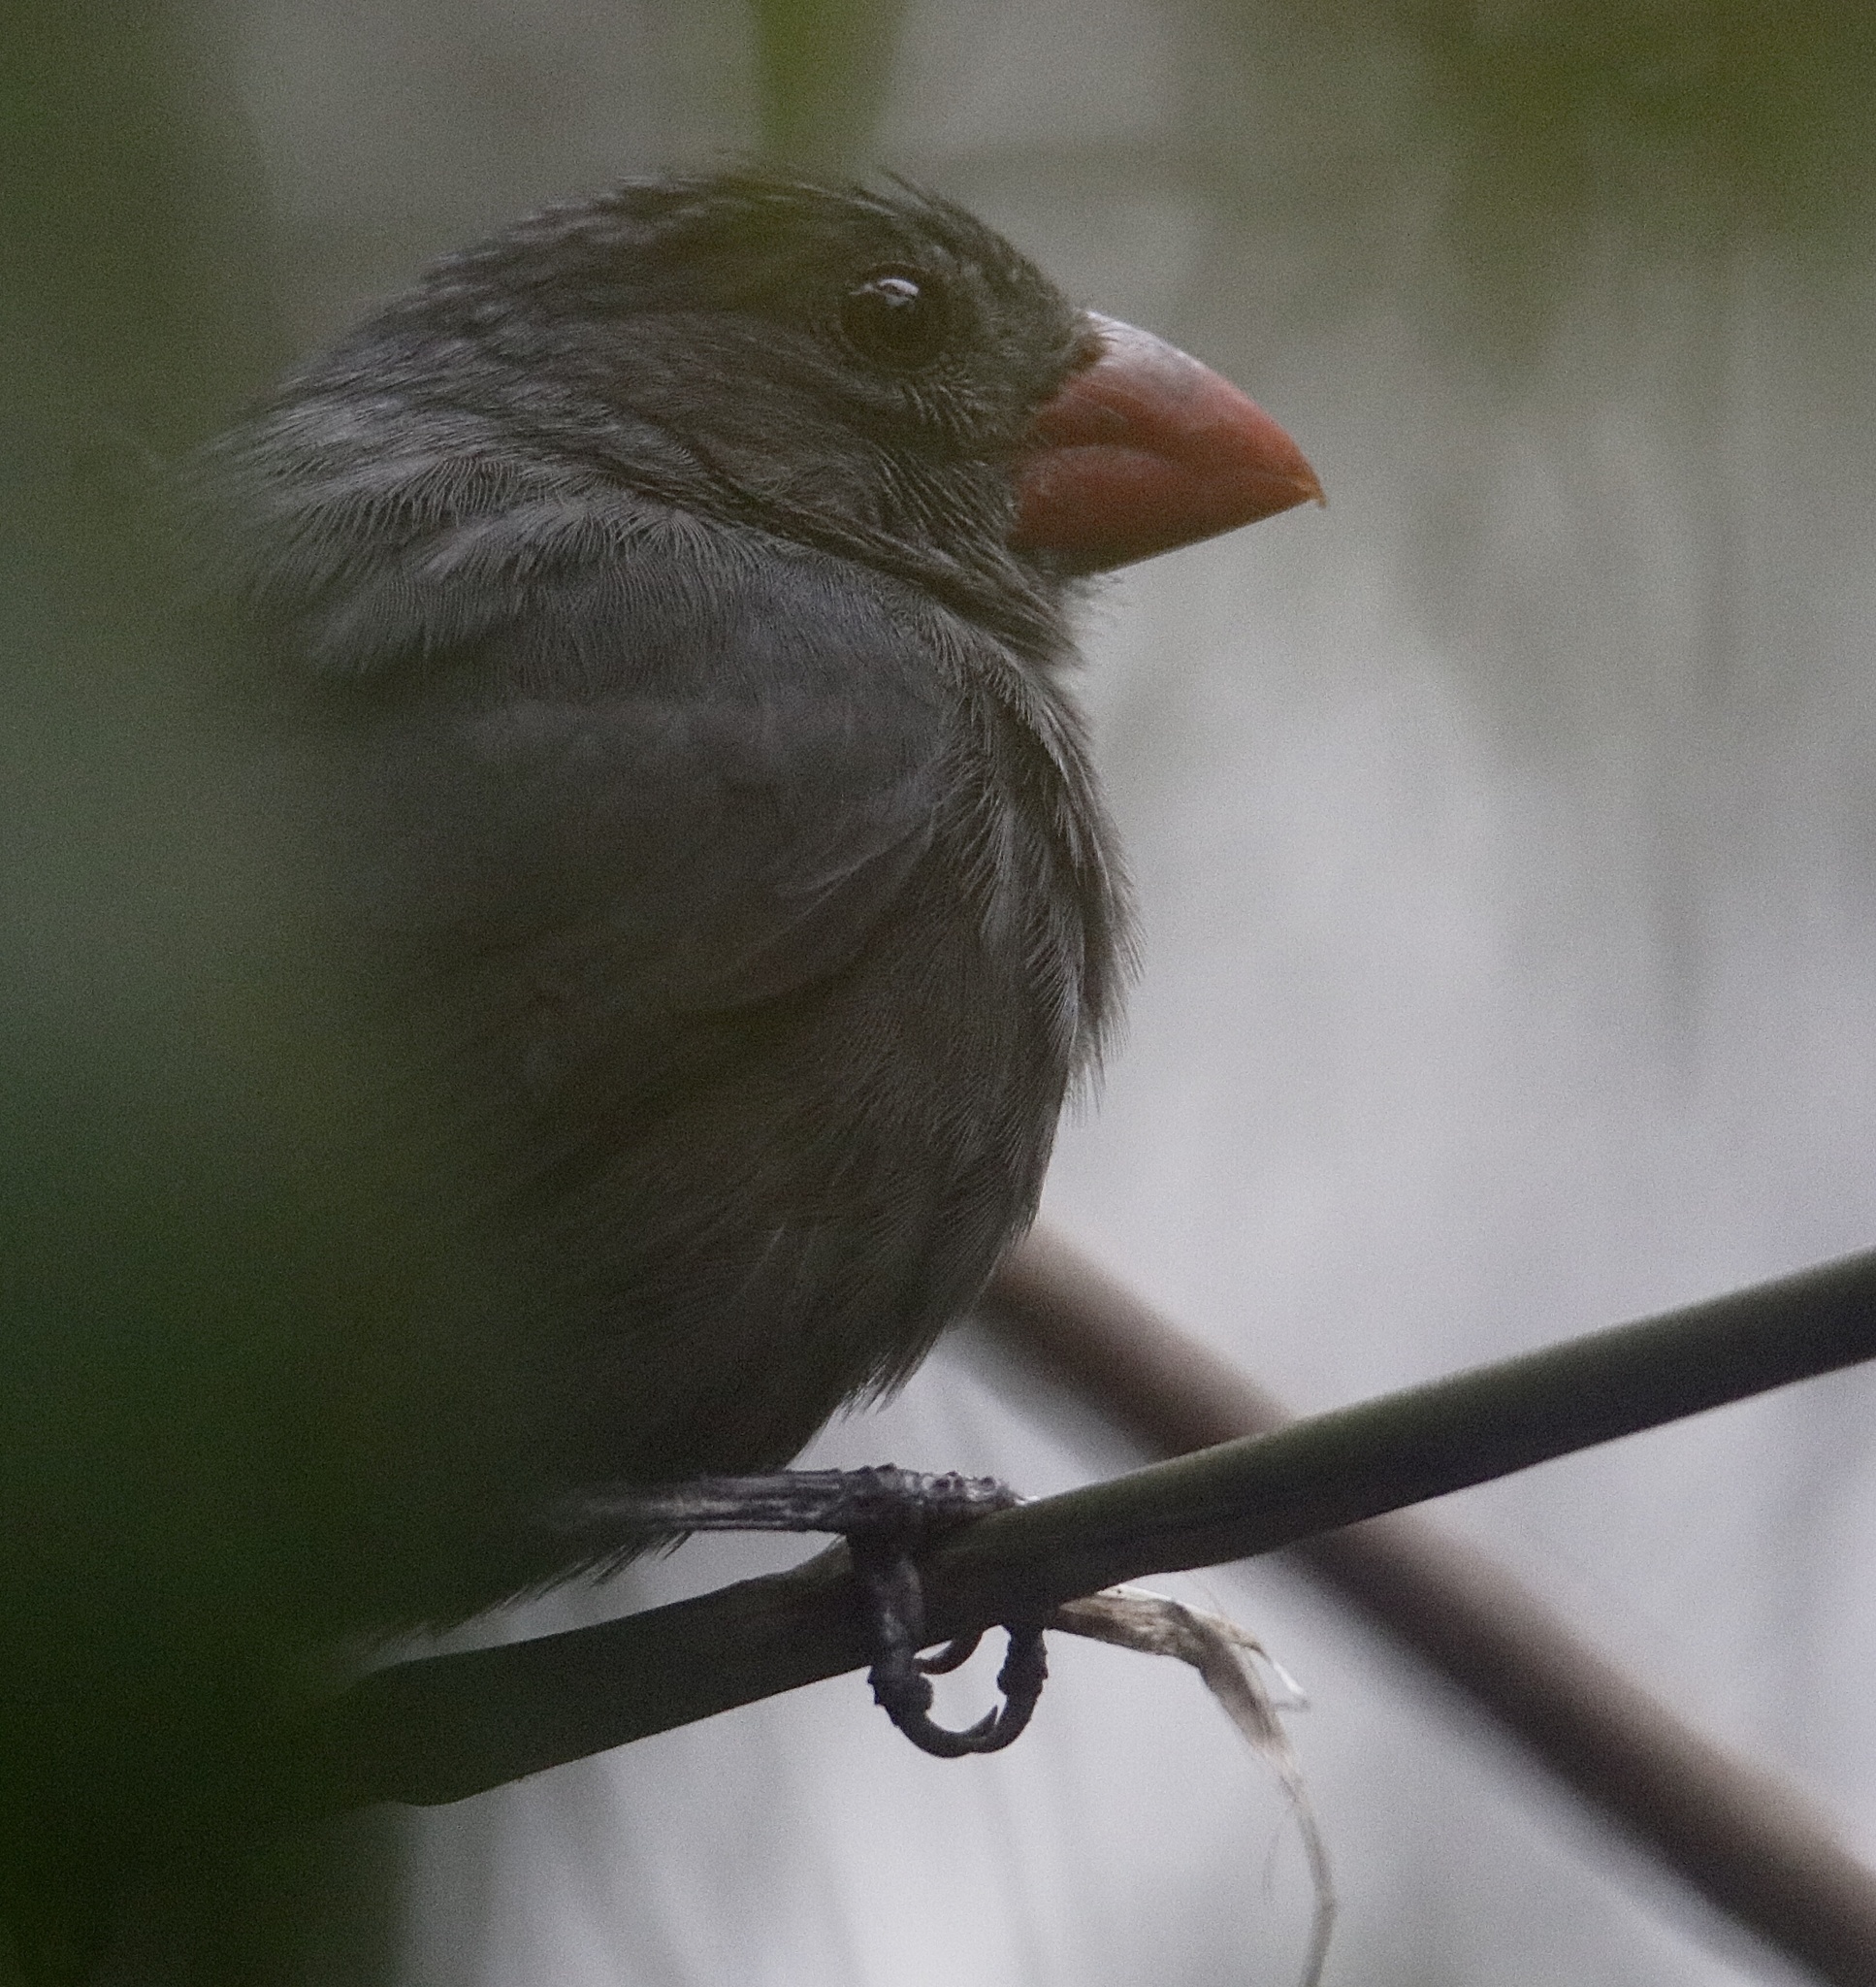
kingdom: Animalia
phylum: Chordata
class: Aves
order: Passeriformes
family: Thraupidae
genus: Saltator
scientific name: Saltator grossus
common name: Slate-colored grosbeak
